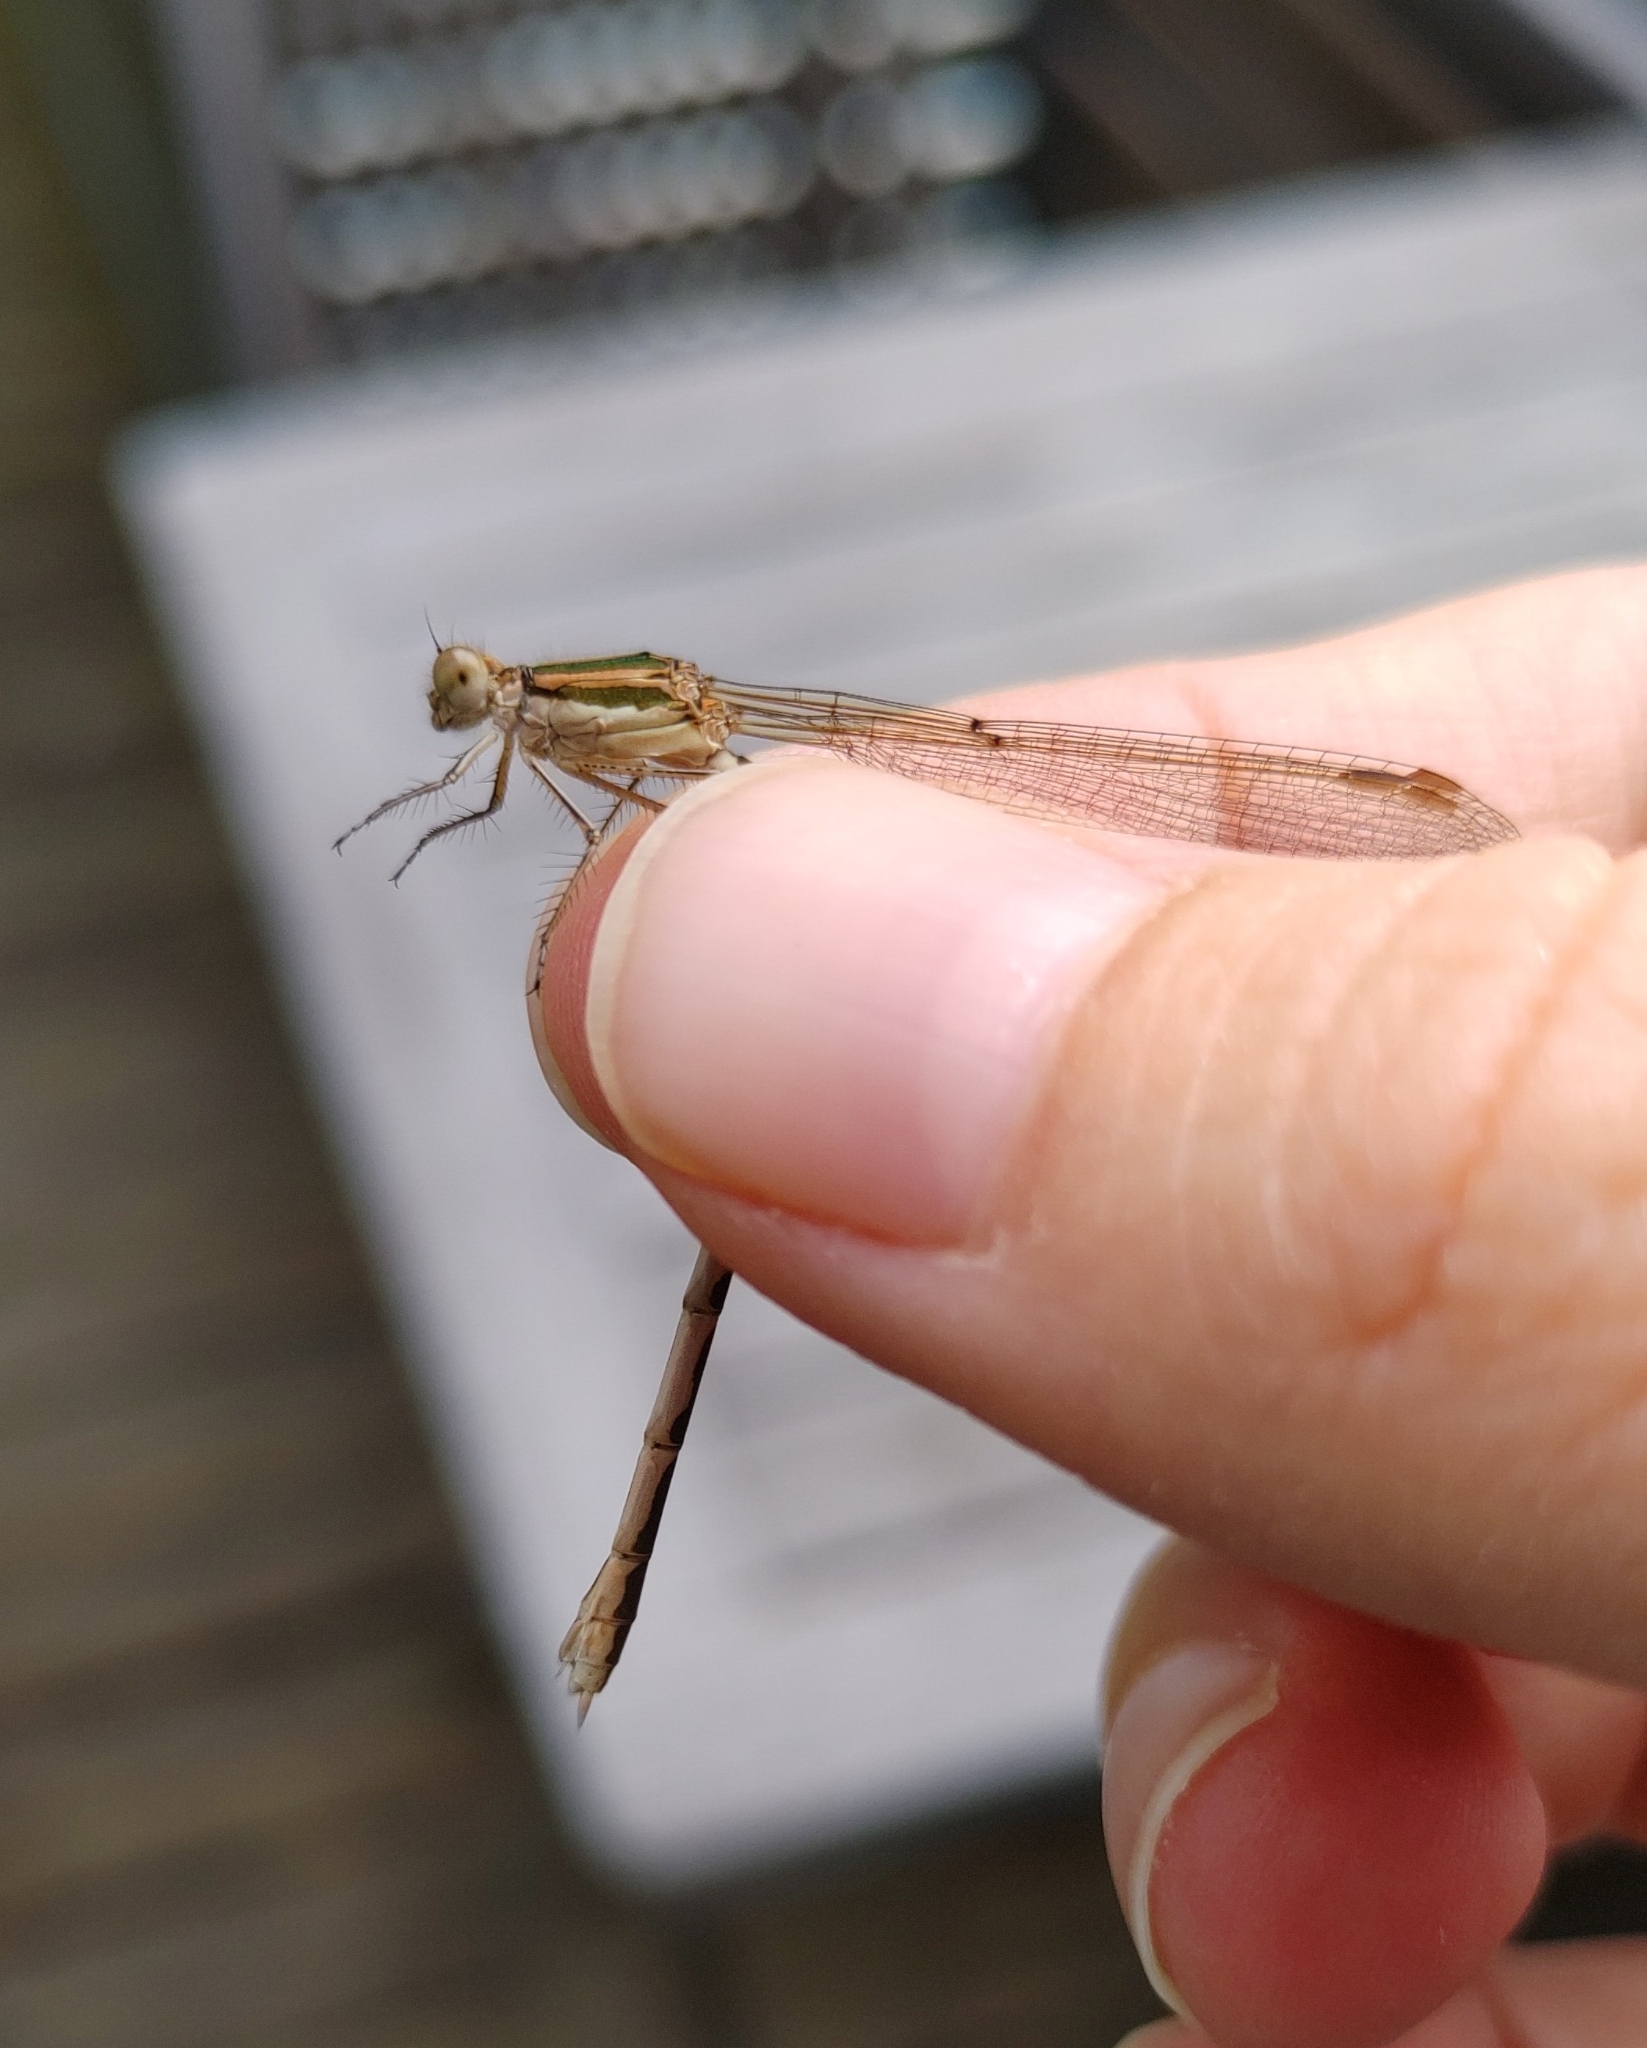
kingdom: Animalia
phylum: Arthropoda
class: Insecta
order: Odonata
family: Lestidae
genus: Sympecma
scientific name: Sympecma fusca
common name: Common winter damsel
